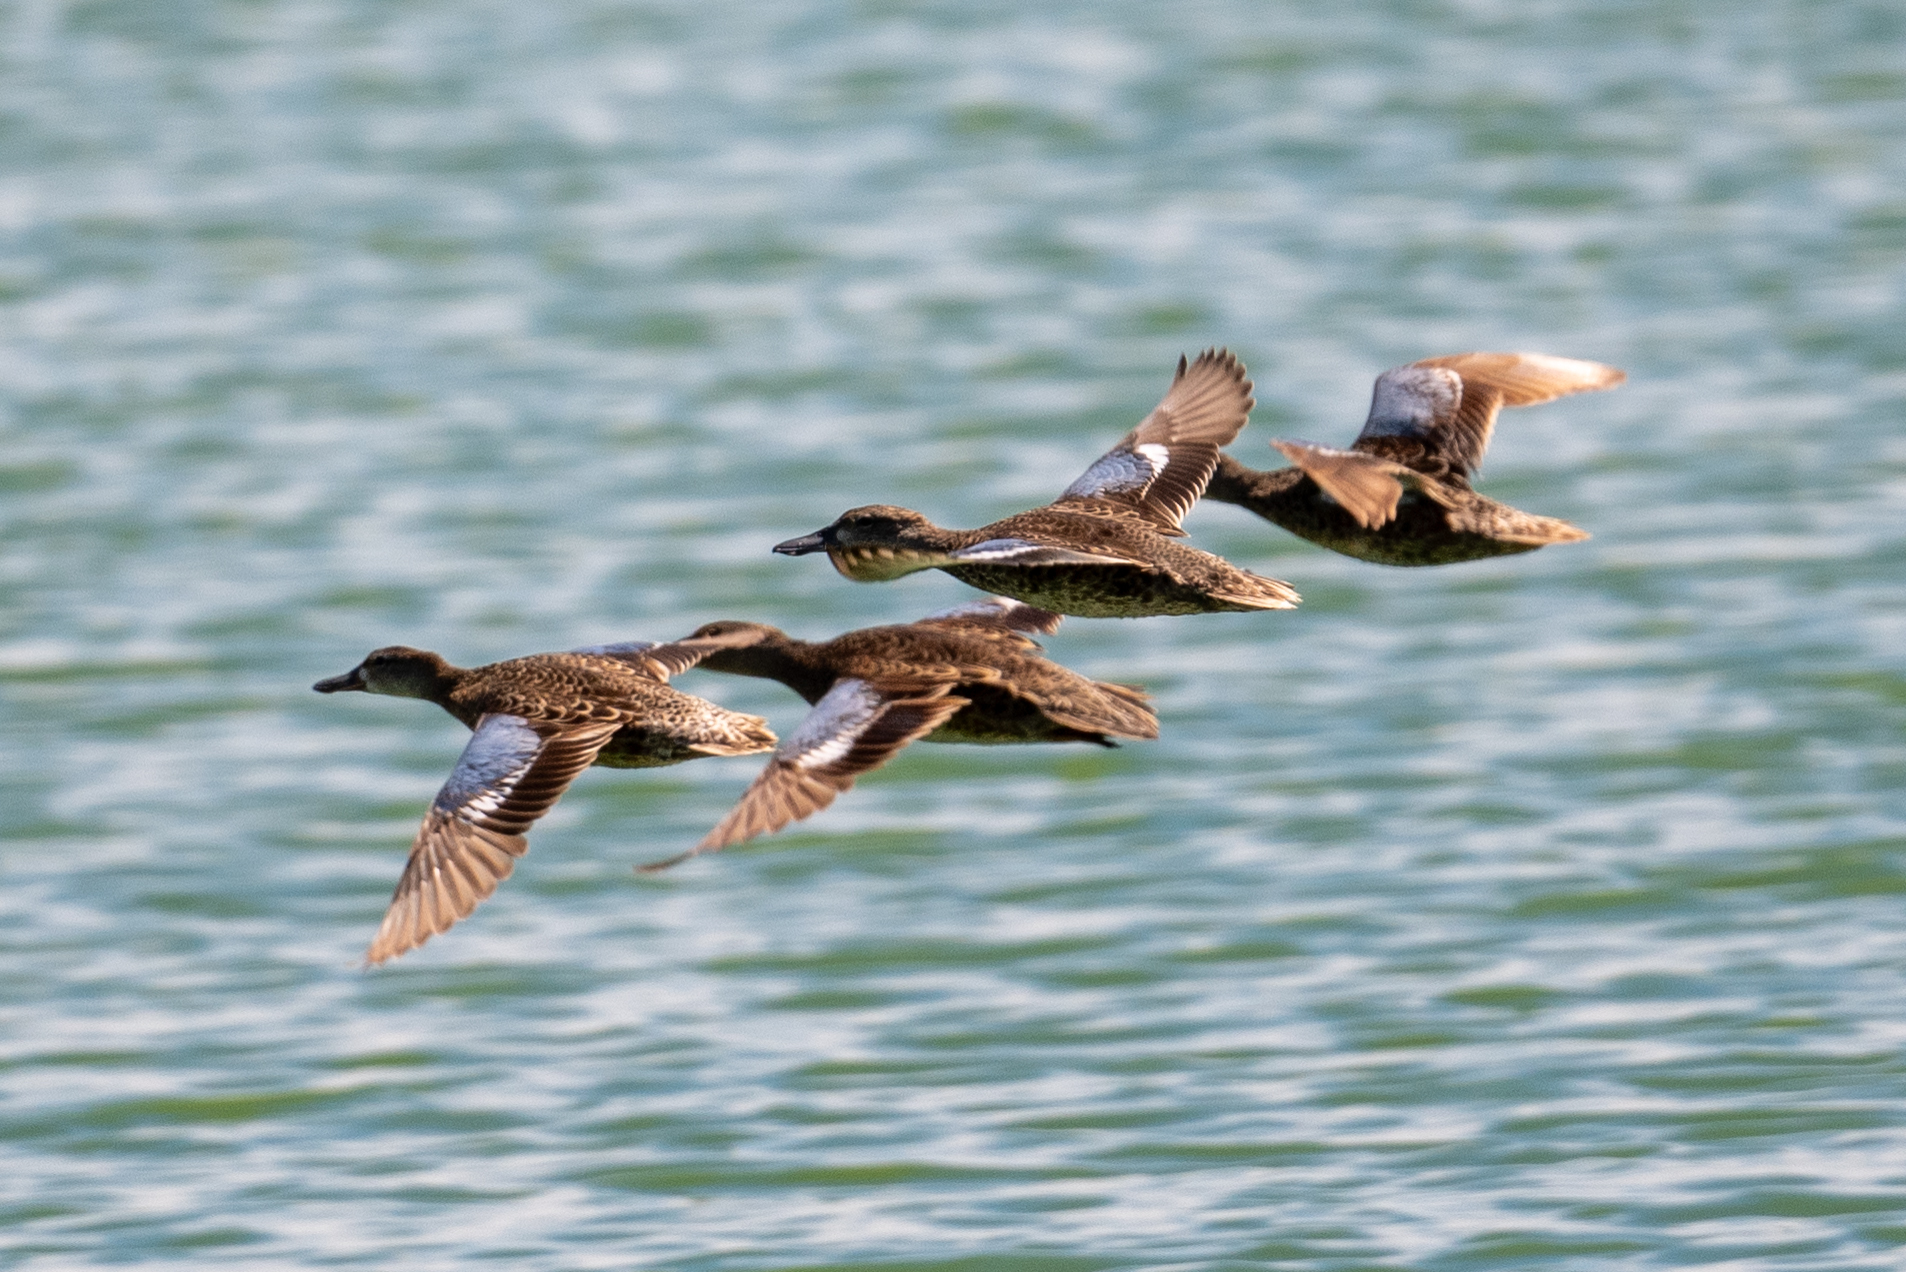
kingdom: Animalia
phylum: Chordata
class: Aves
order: Anseriformes
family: Anatidae
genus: Spatula
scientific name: Spatula discors
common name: Blue-winged teal
